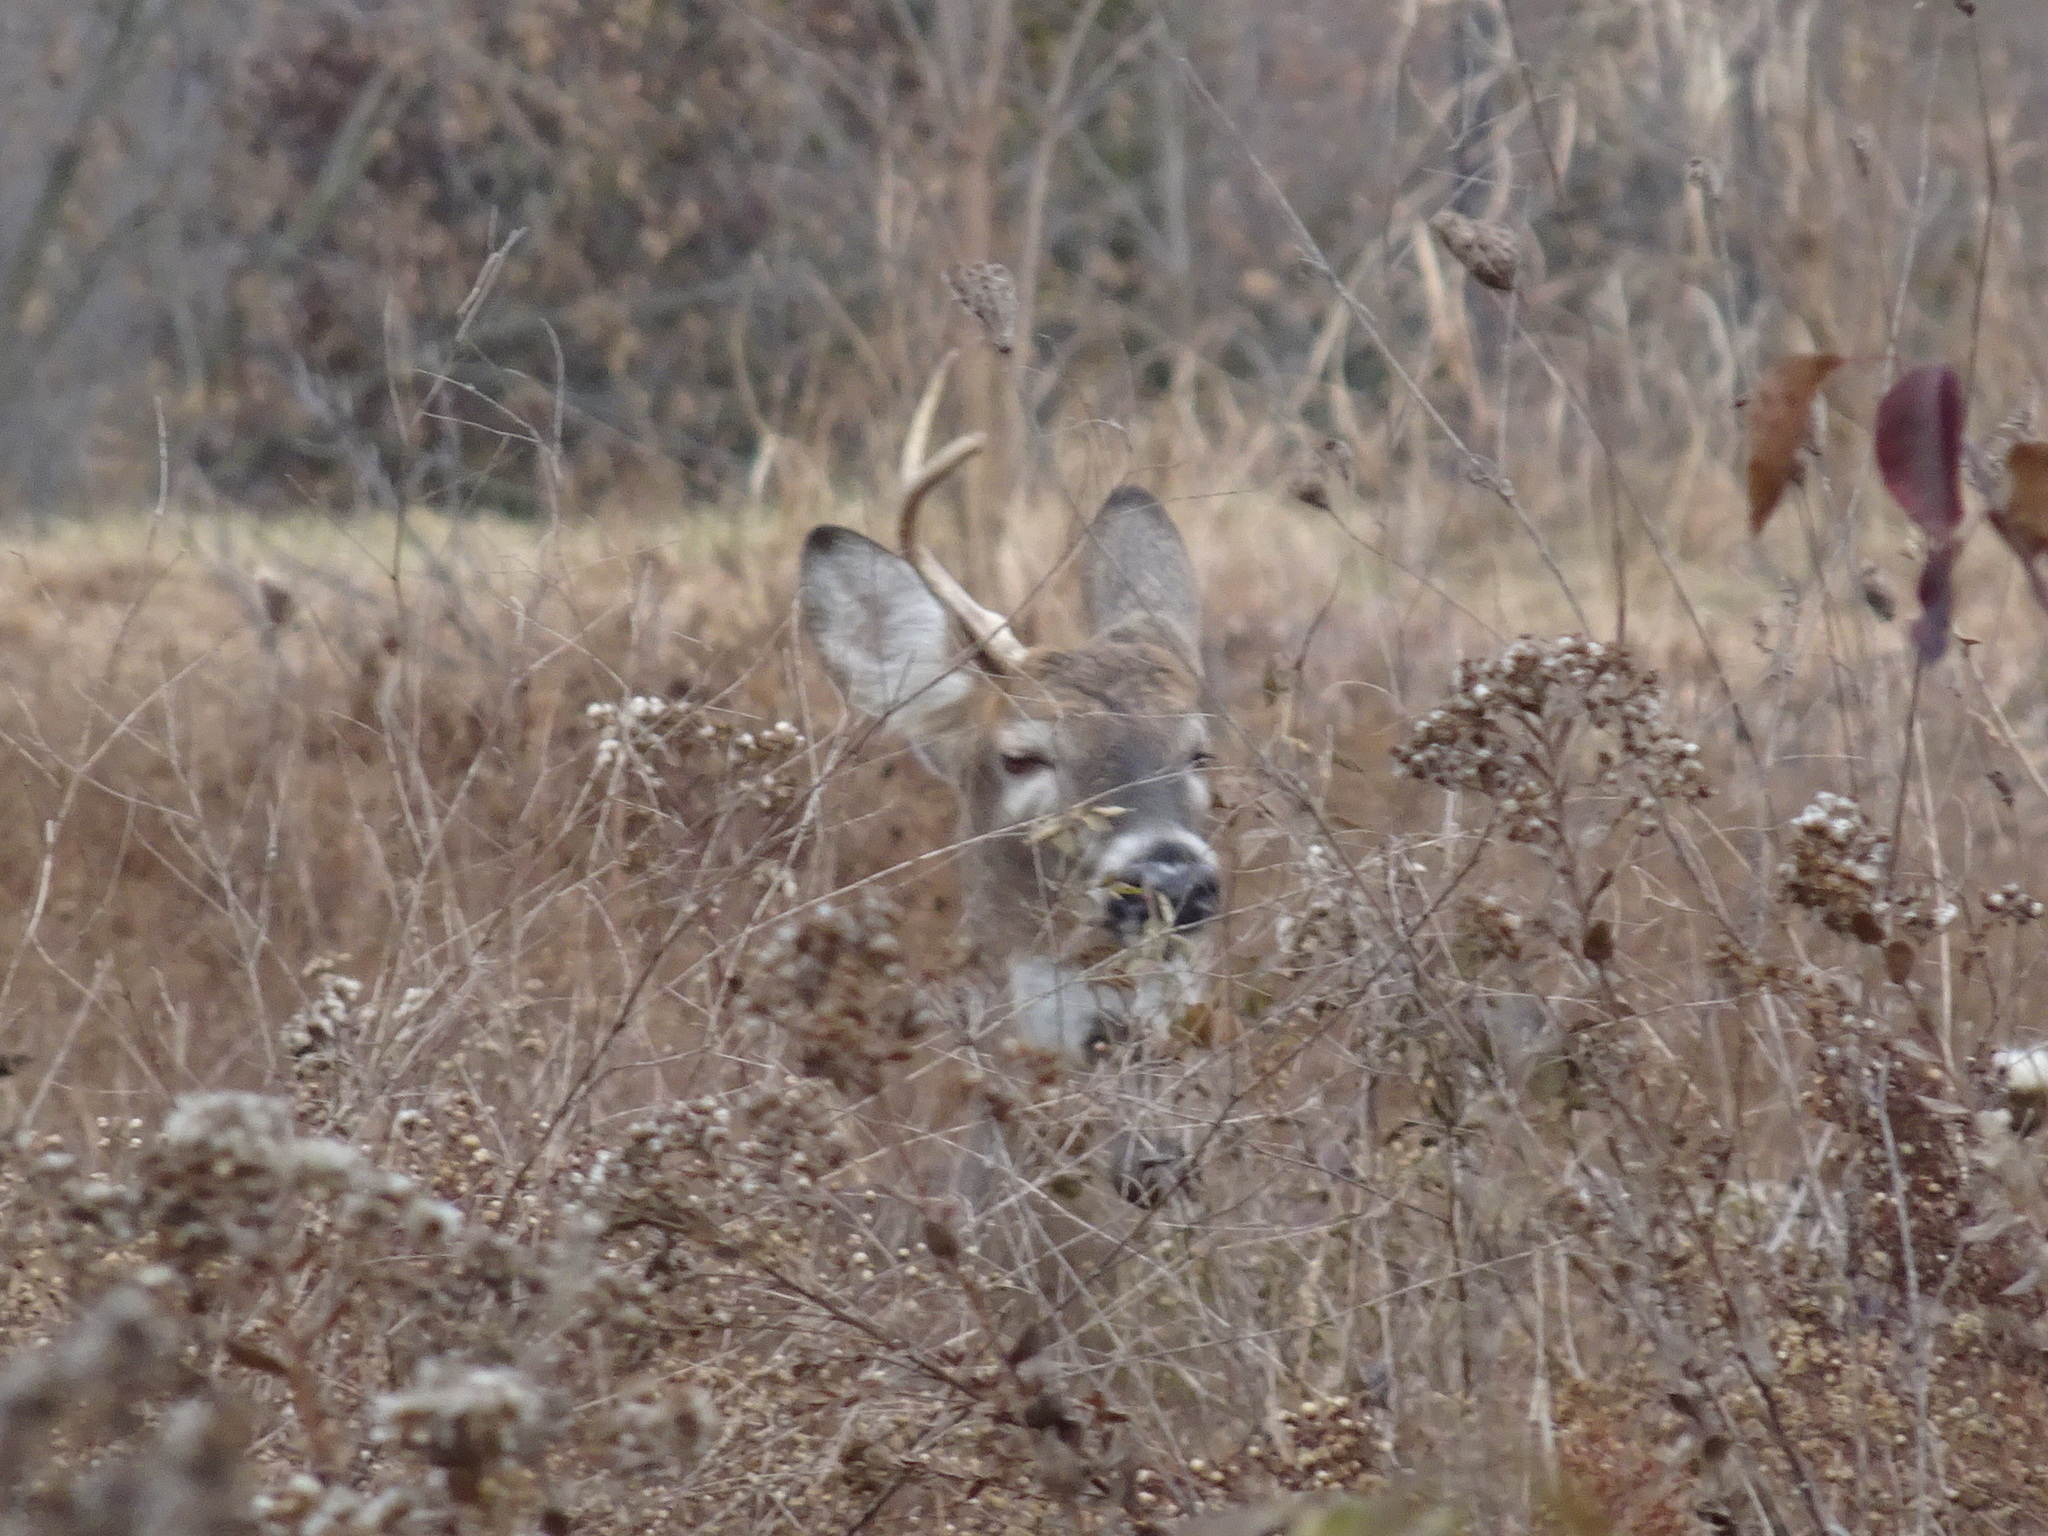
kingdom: Animalia
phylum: Chordata
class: Mammalia
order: Artiodactyla
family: Cervidae
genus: Odocoileus
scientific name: Odocoileus virginianus
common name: White-tailed deer
